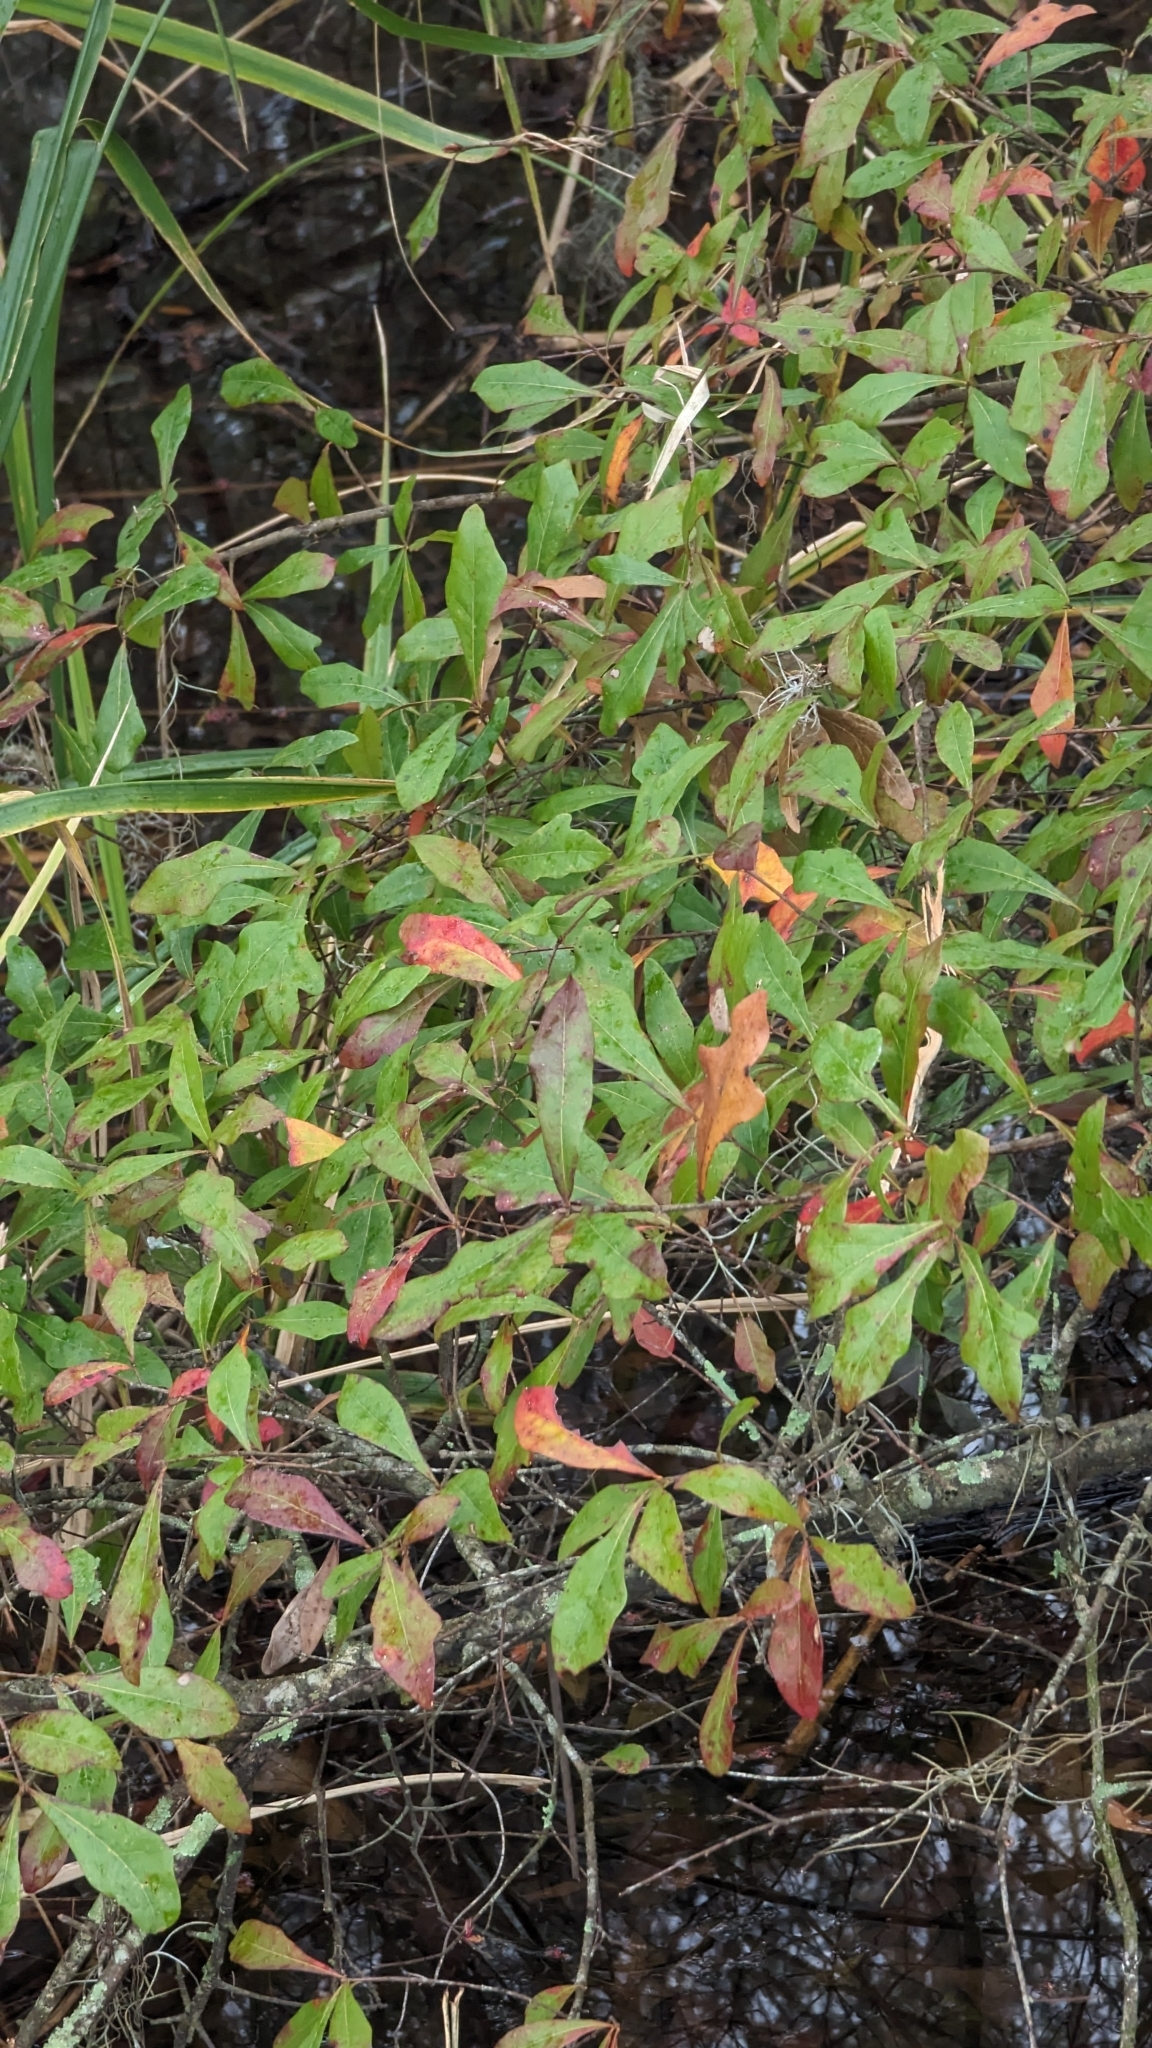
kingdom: Plantae
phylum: Tracheophyta
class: Magnoliopsida
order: Fagales
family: Fagaceae
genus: Quercus
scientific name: Quercus laurifolia
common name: Swamp laurel oak
